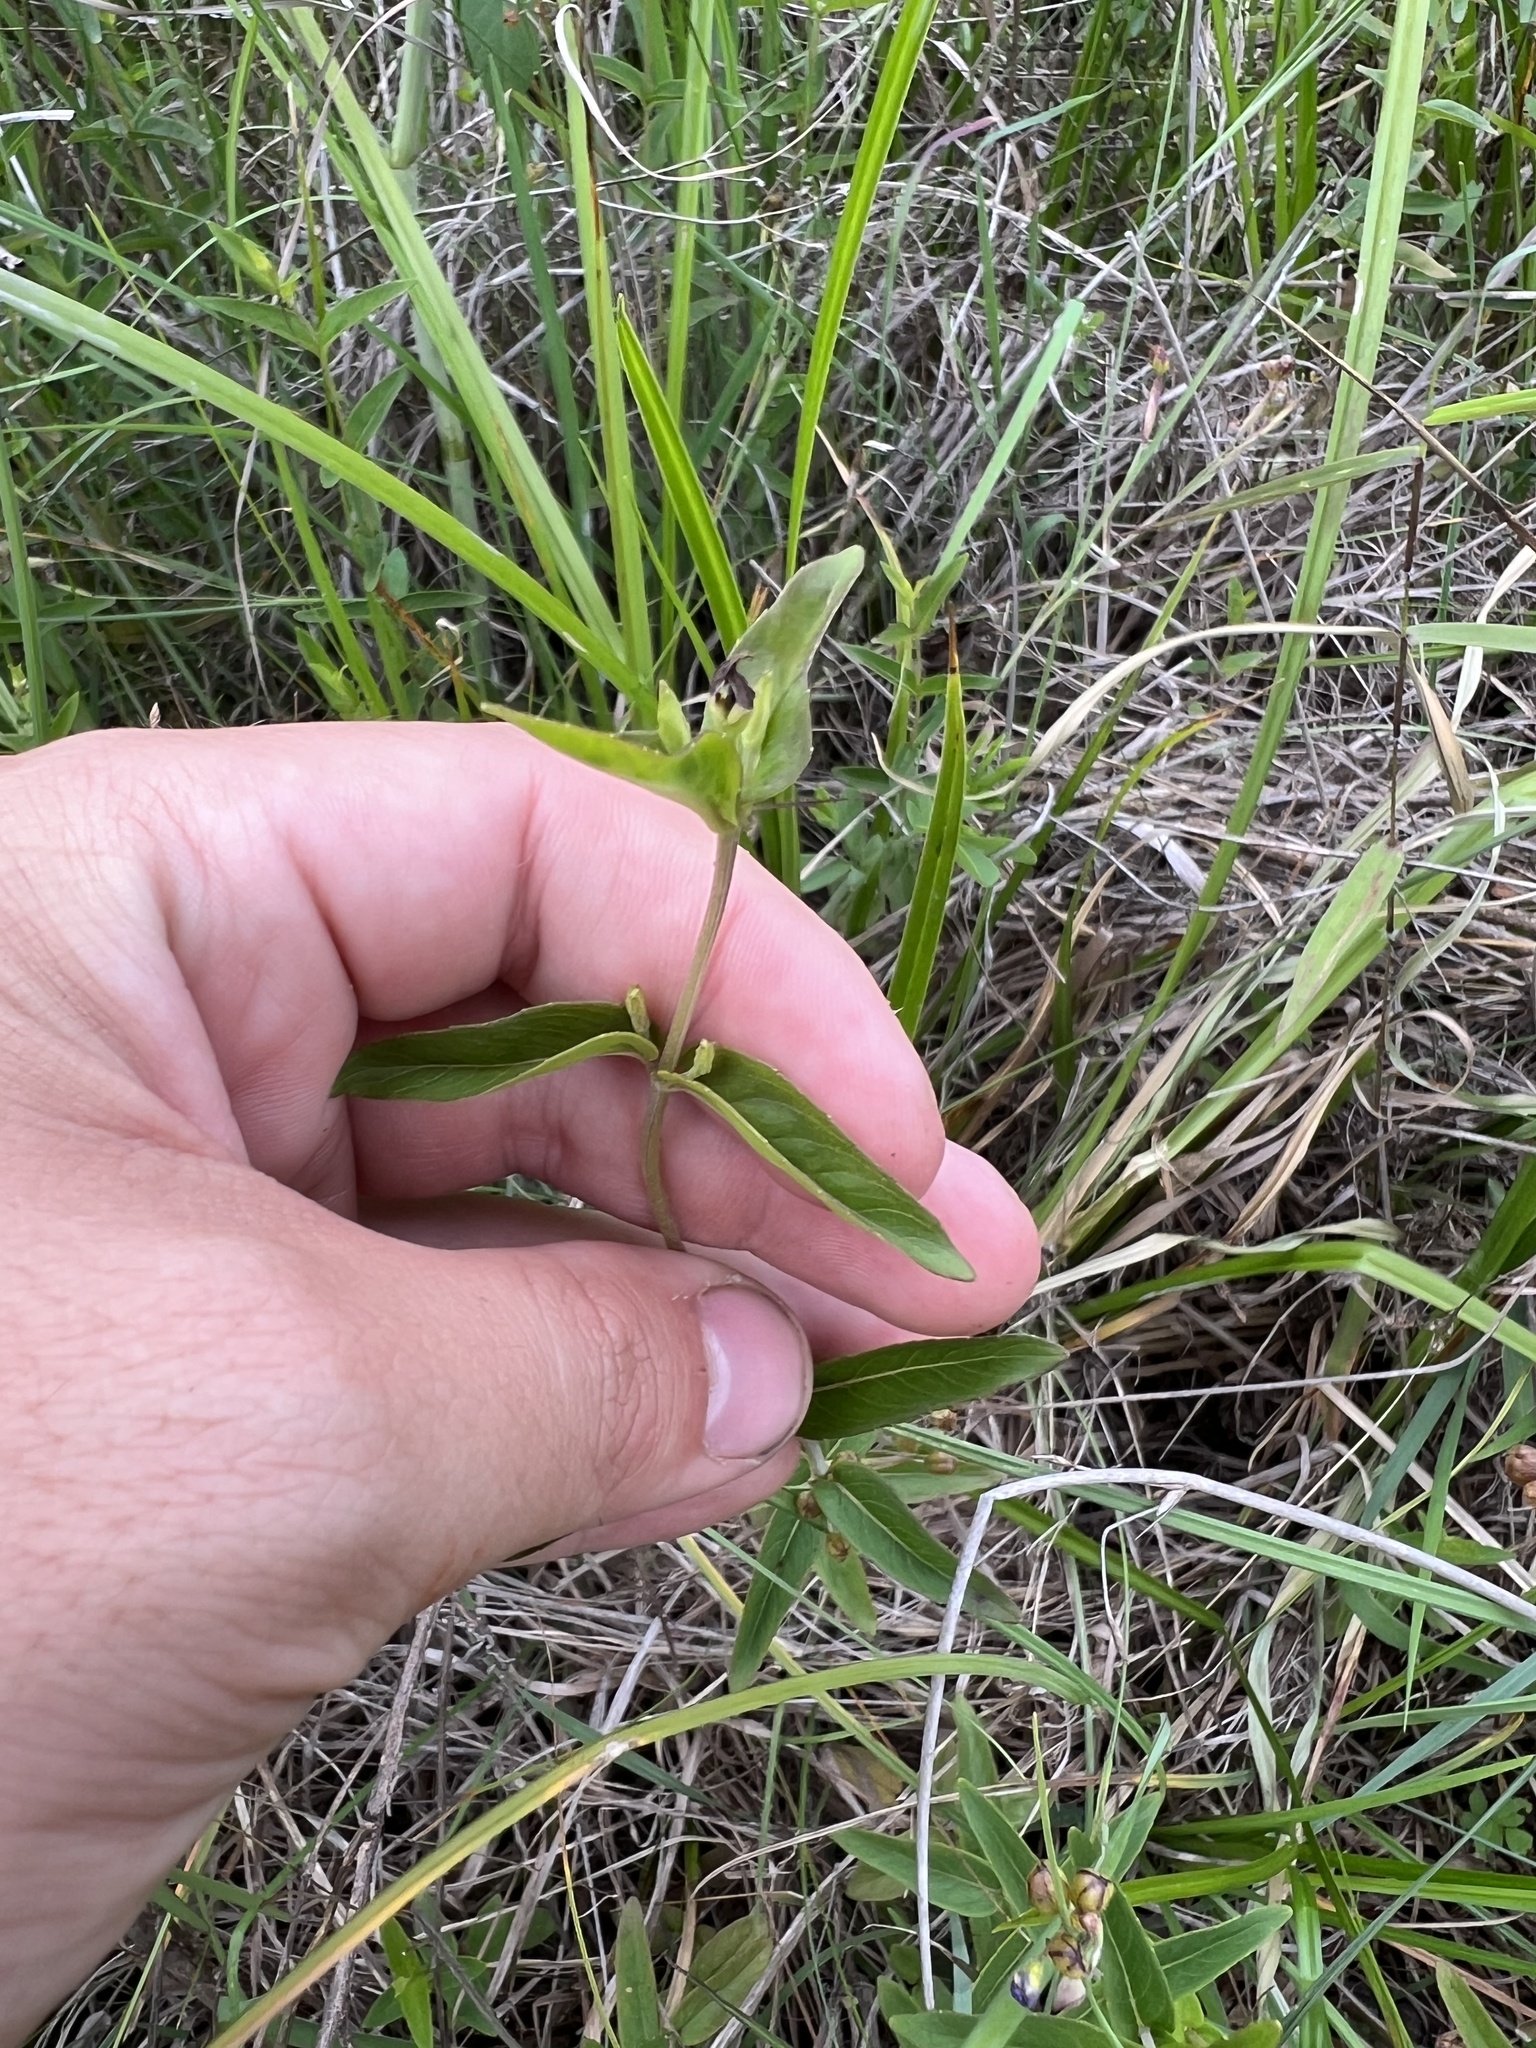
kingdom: Plantae
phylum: Tracheophyta
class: Magnoliopsida
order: Lamiales
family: Lamiaceae
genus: Pycnanthemum
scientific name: Pycnanthemum muticum
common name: Blunt mountain-mint
